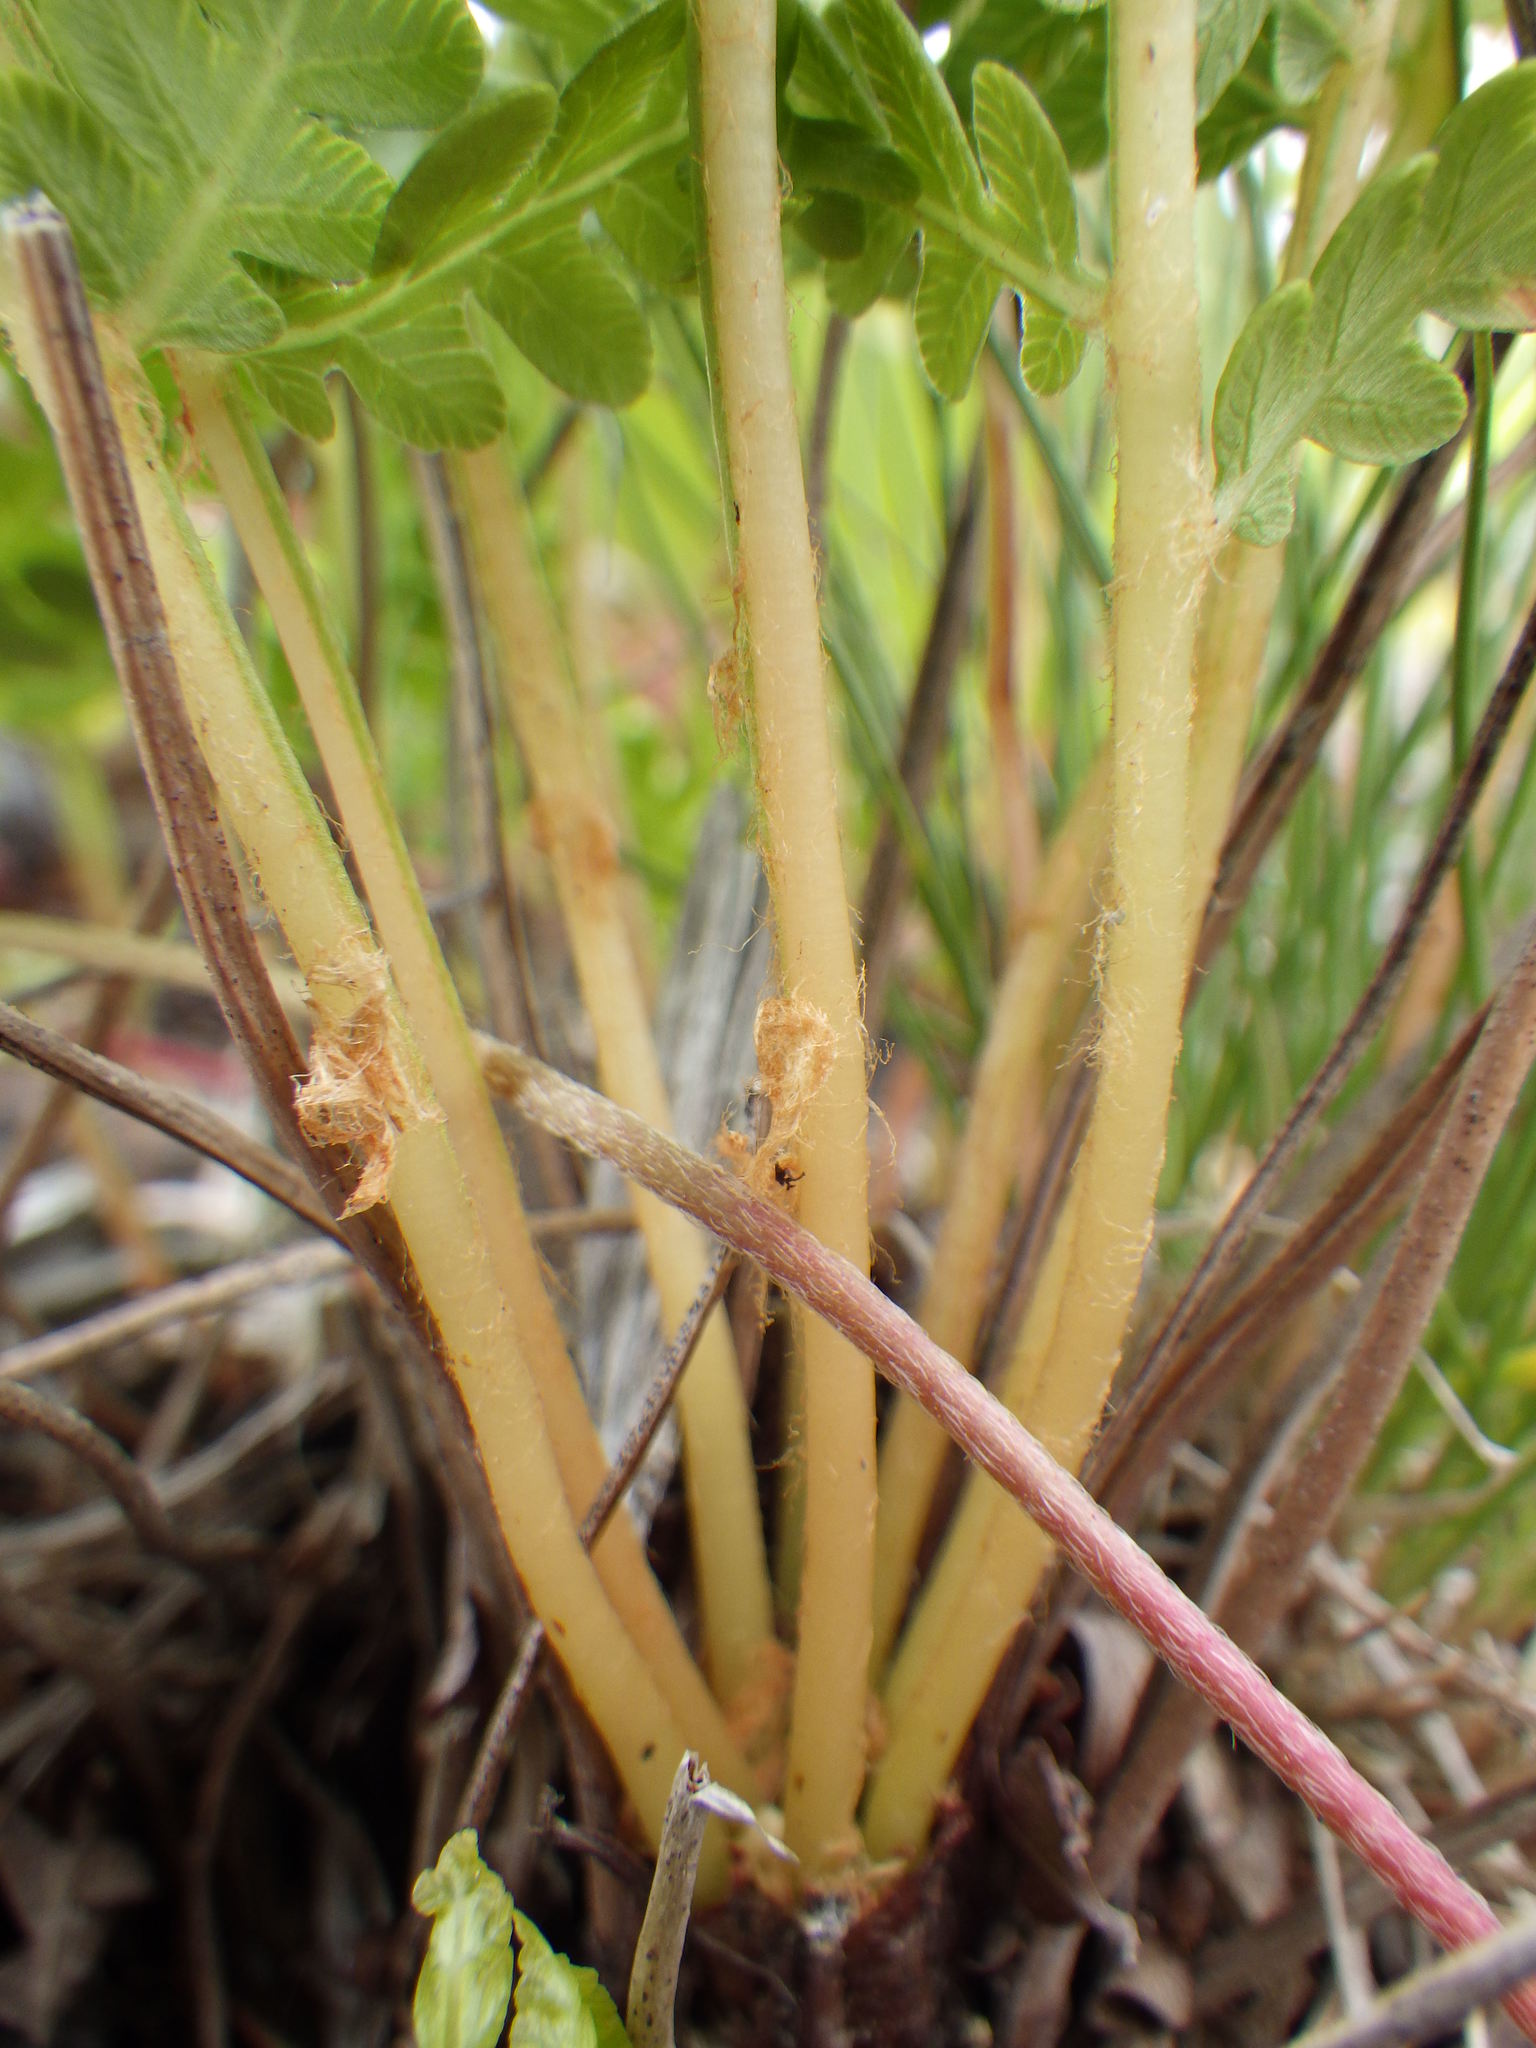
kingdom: Plantae
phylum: Tracheophyta
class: Polypodiopsida
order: Osmundales
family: Osmundaceae
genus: Osmundastrum
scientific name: Osmundastrum cinnamomeum
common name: Cinnamon fern
